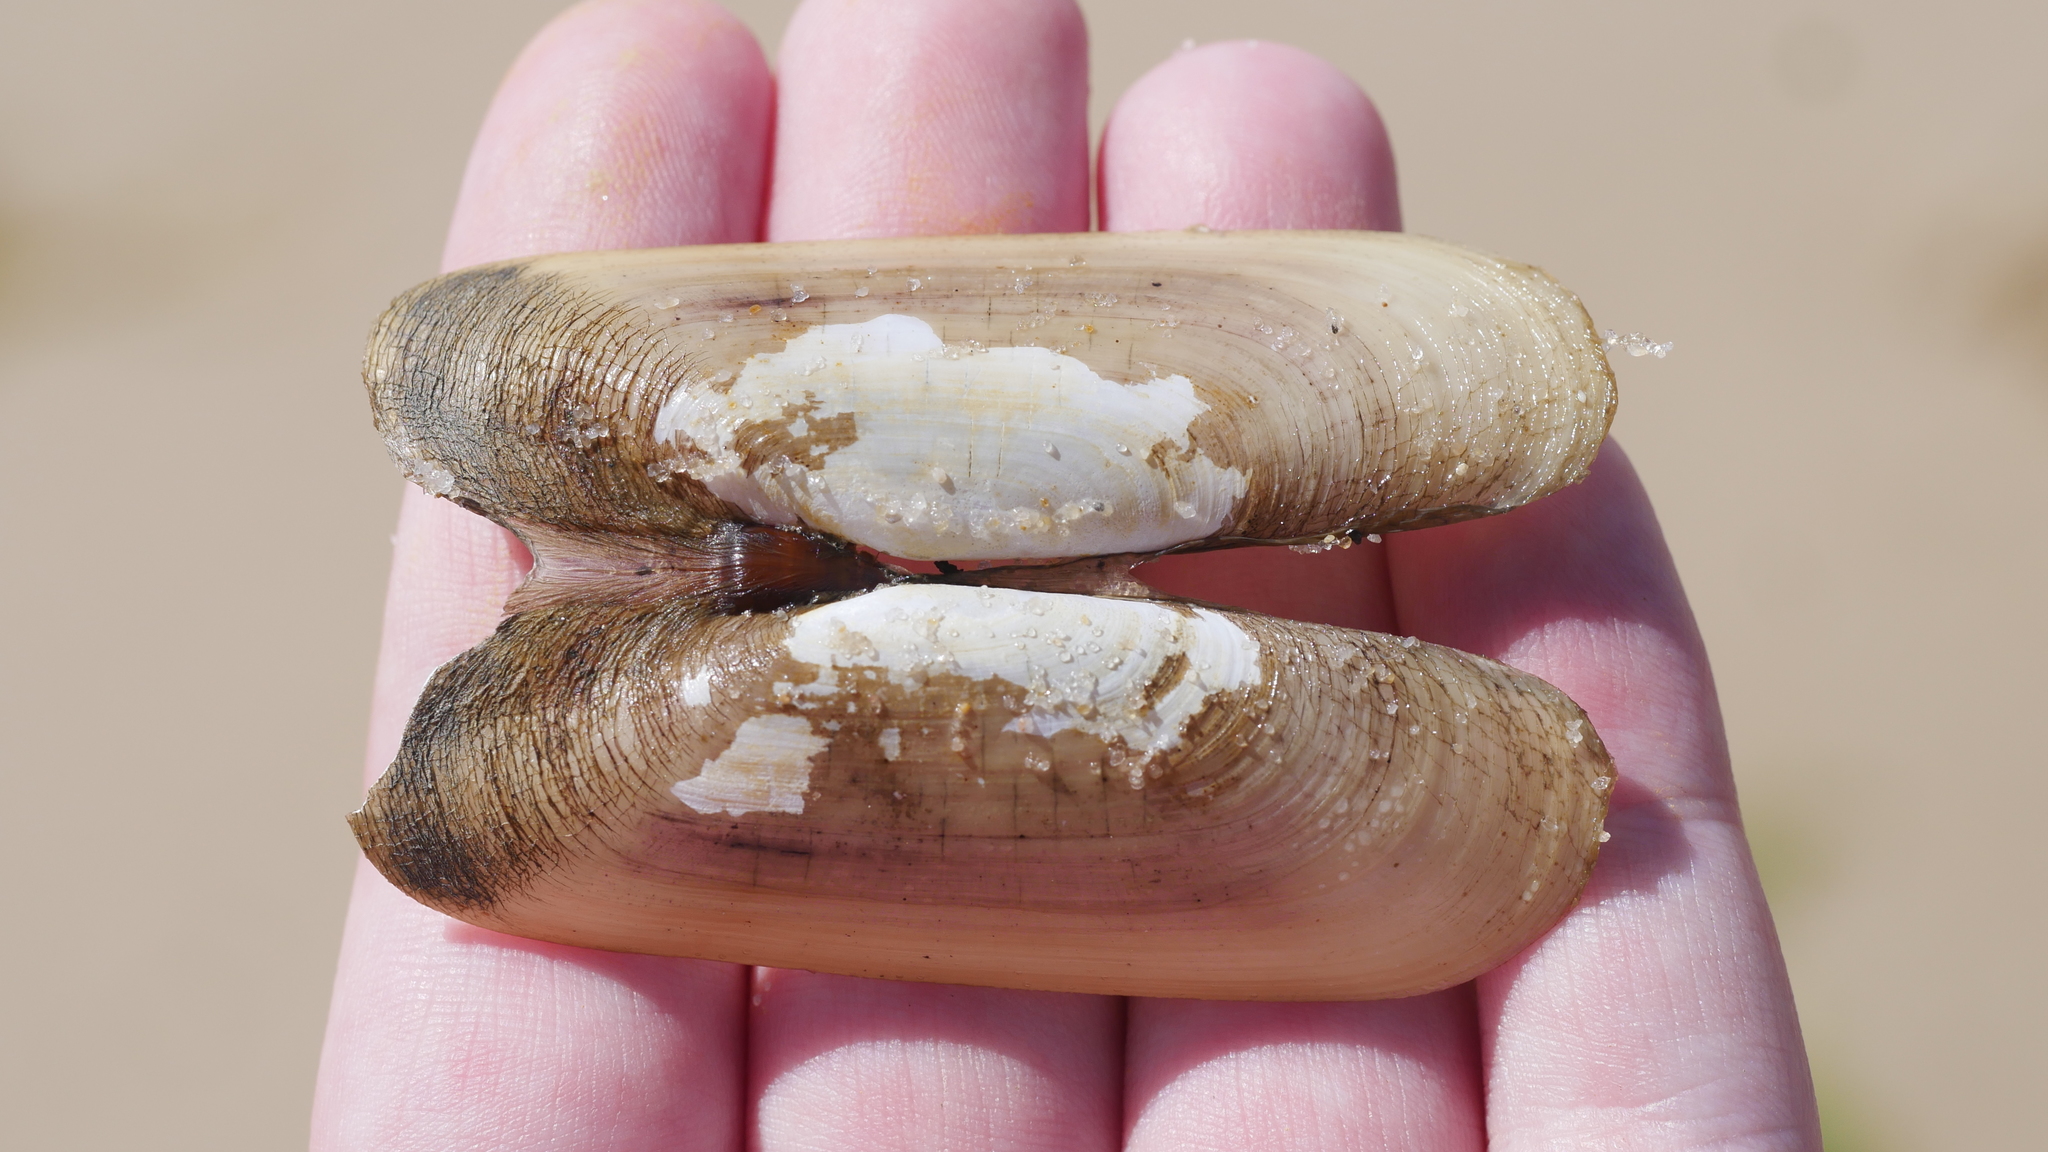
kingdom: Animalia
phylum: Mollusca
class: Bivalvia
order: Cardiida
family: Solecurtidae
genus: Tagelus
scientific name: Tagelus plebeius
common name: Stout tagelus
